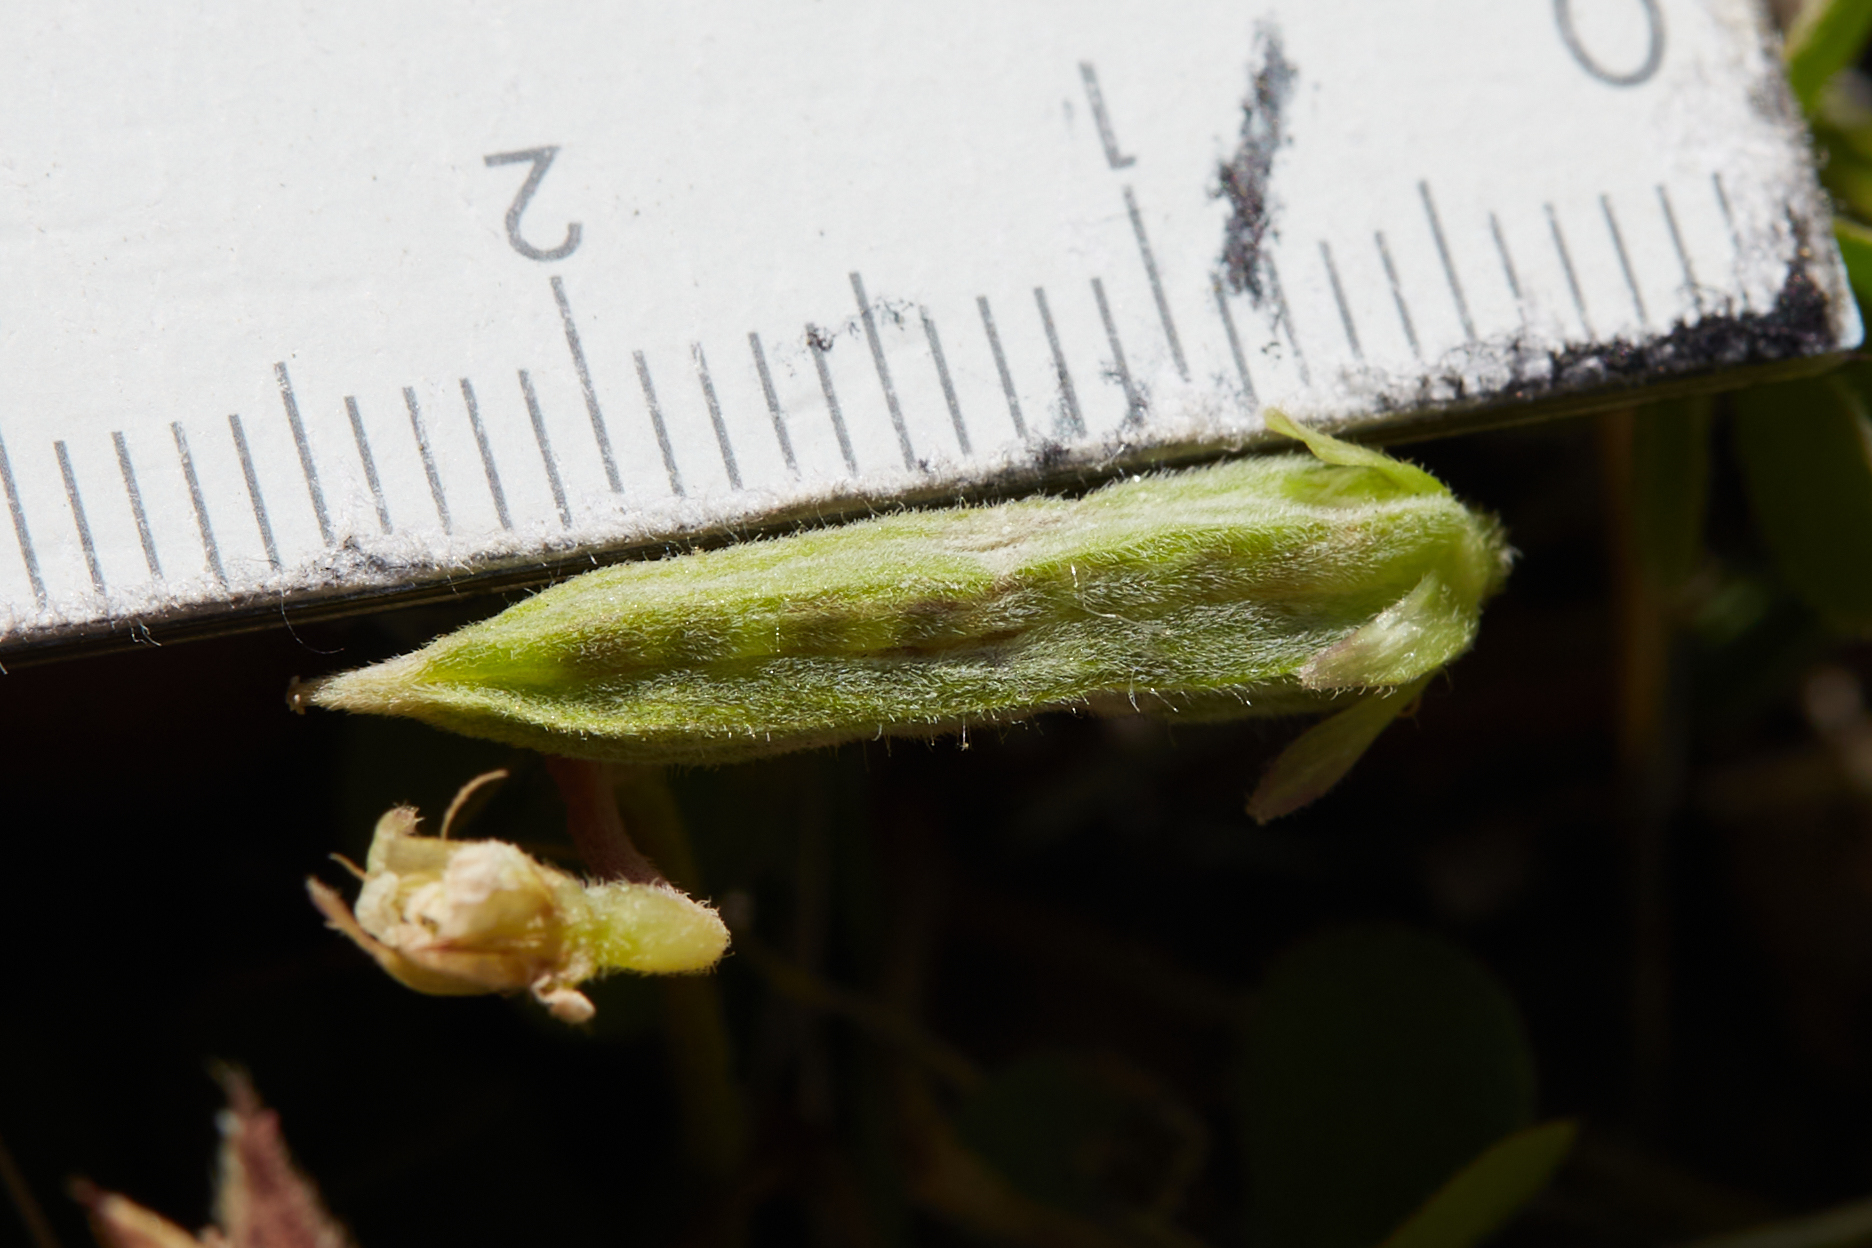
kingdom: Plantae
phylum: Tracheophyta
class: Magnoliopsida
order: Oxalidales
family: Oxalidaceae
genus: Oxalis
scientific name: Oxalis pilosa
